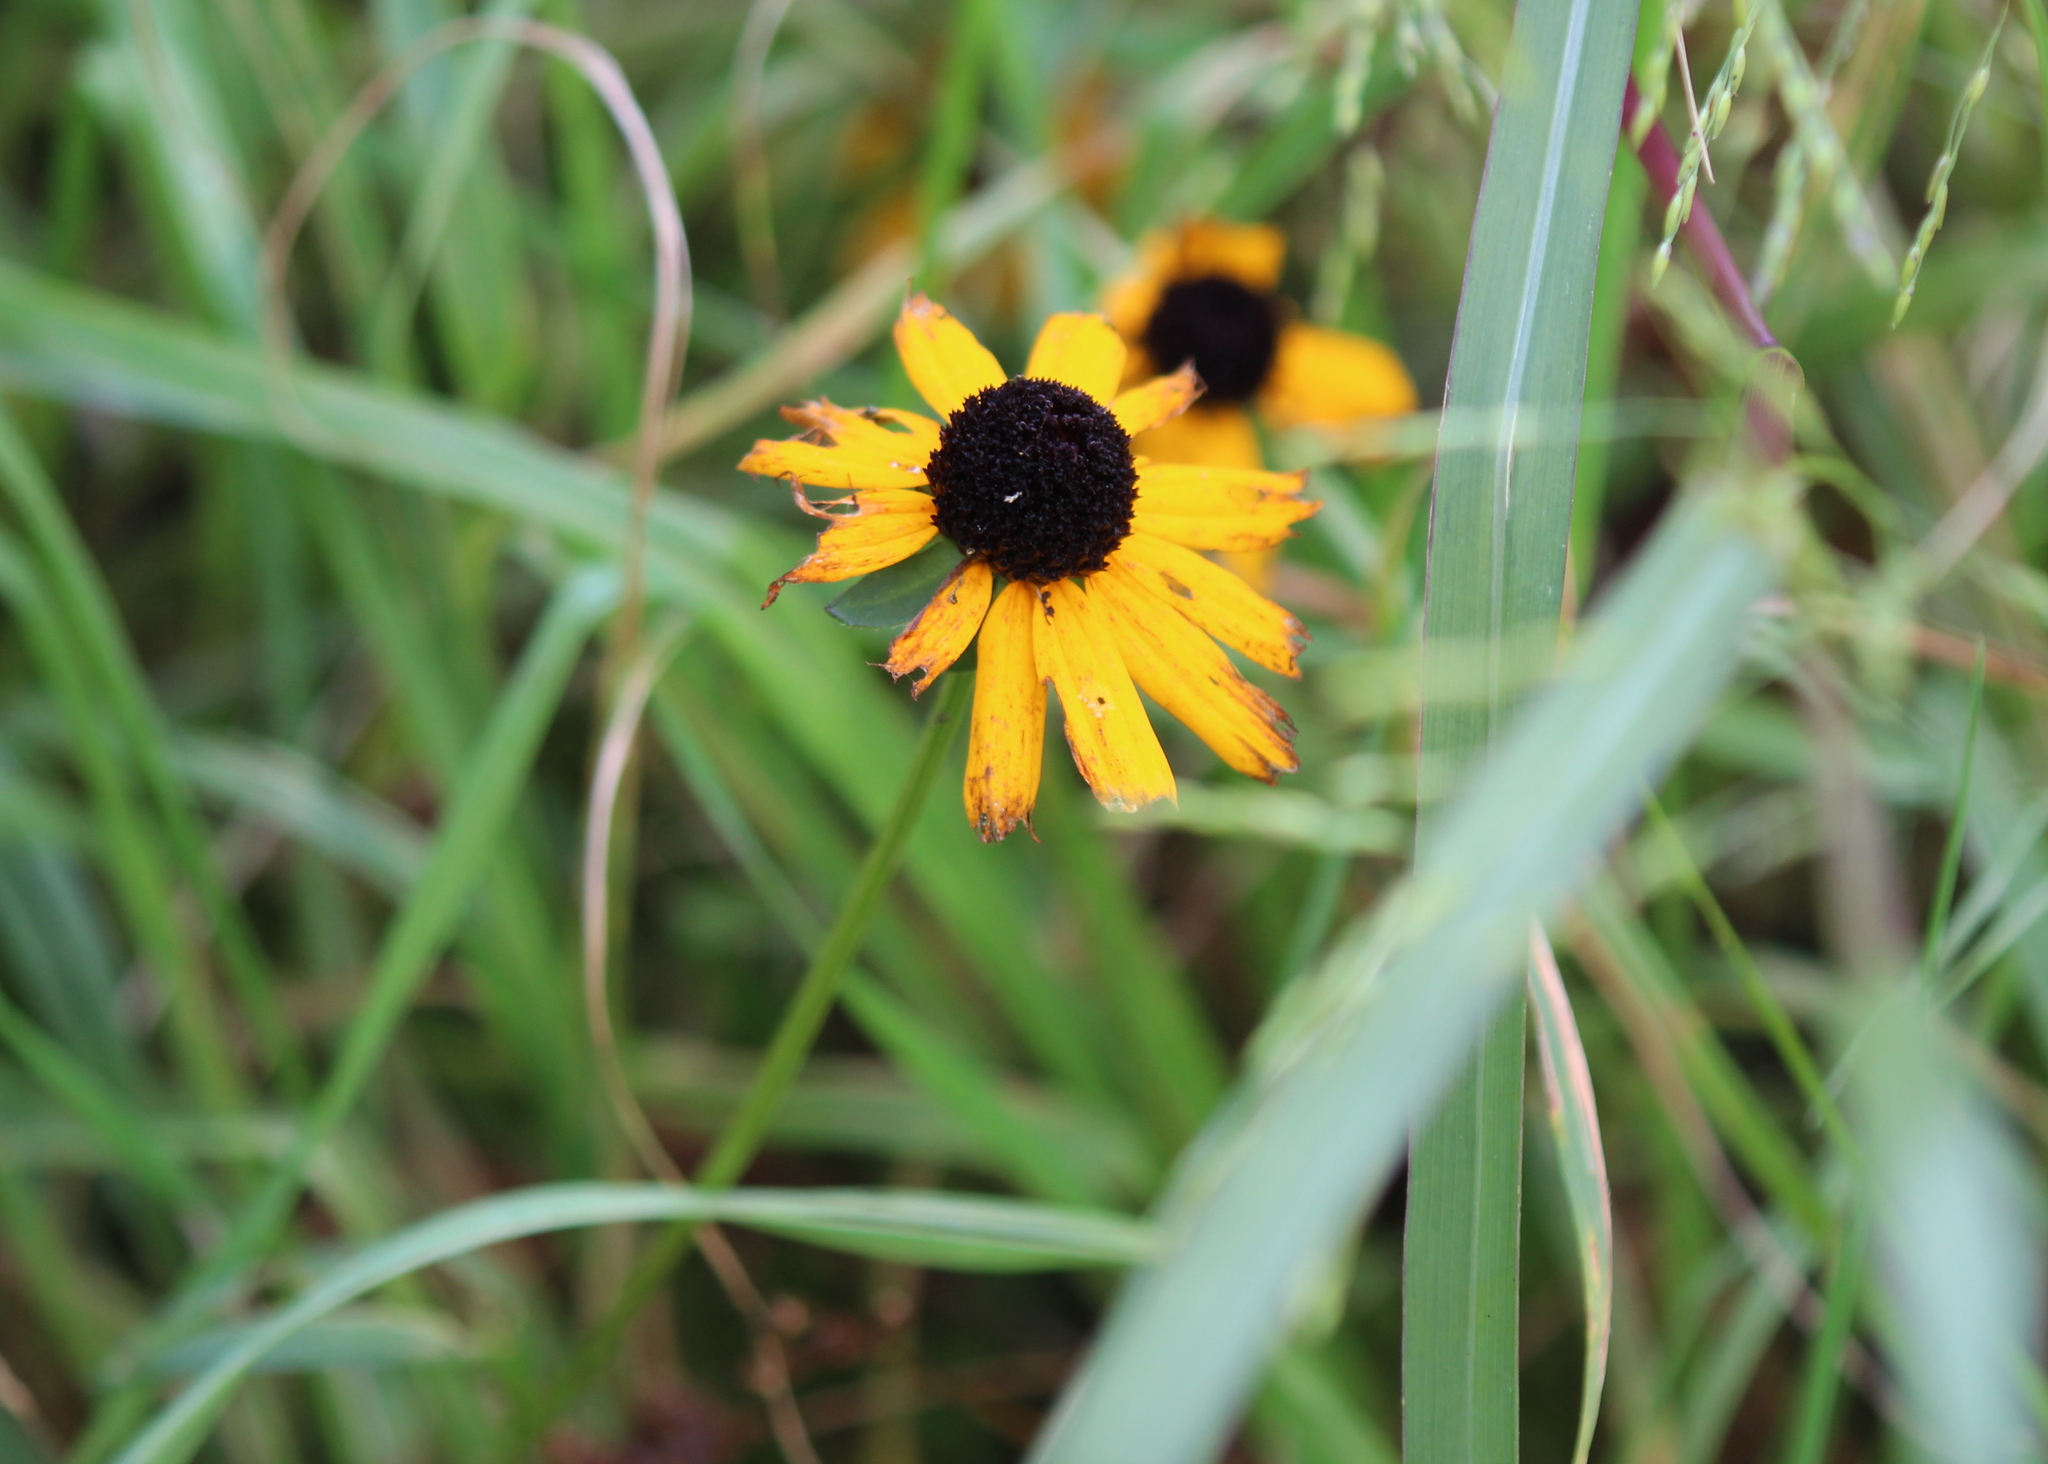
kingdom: Plantae
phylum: Tracheophyta
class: Magnoliopsida
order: Asterales
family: Asteraceae
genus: Rudbeckia
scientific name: Rudbeckia hirta
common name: Black-eyed-susan
